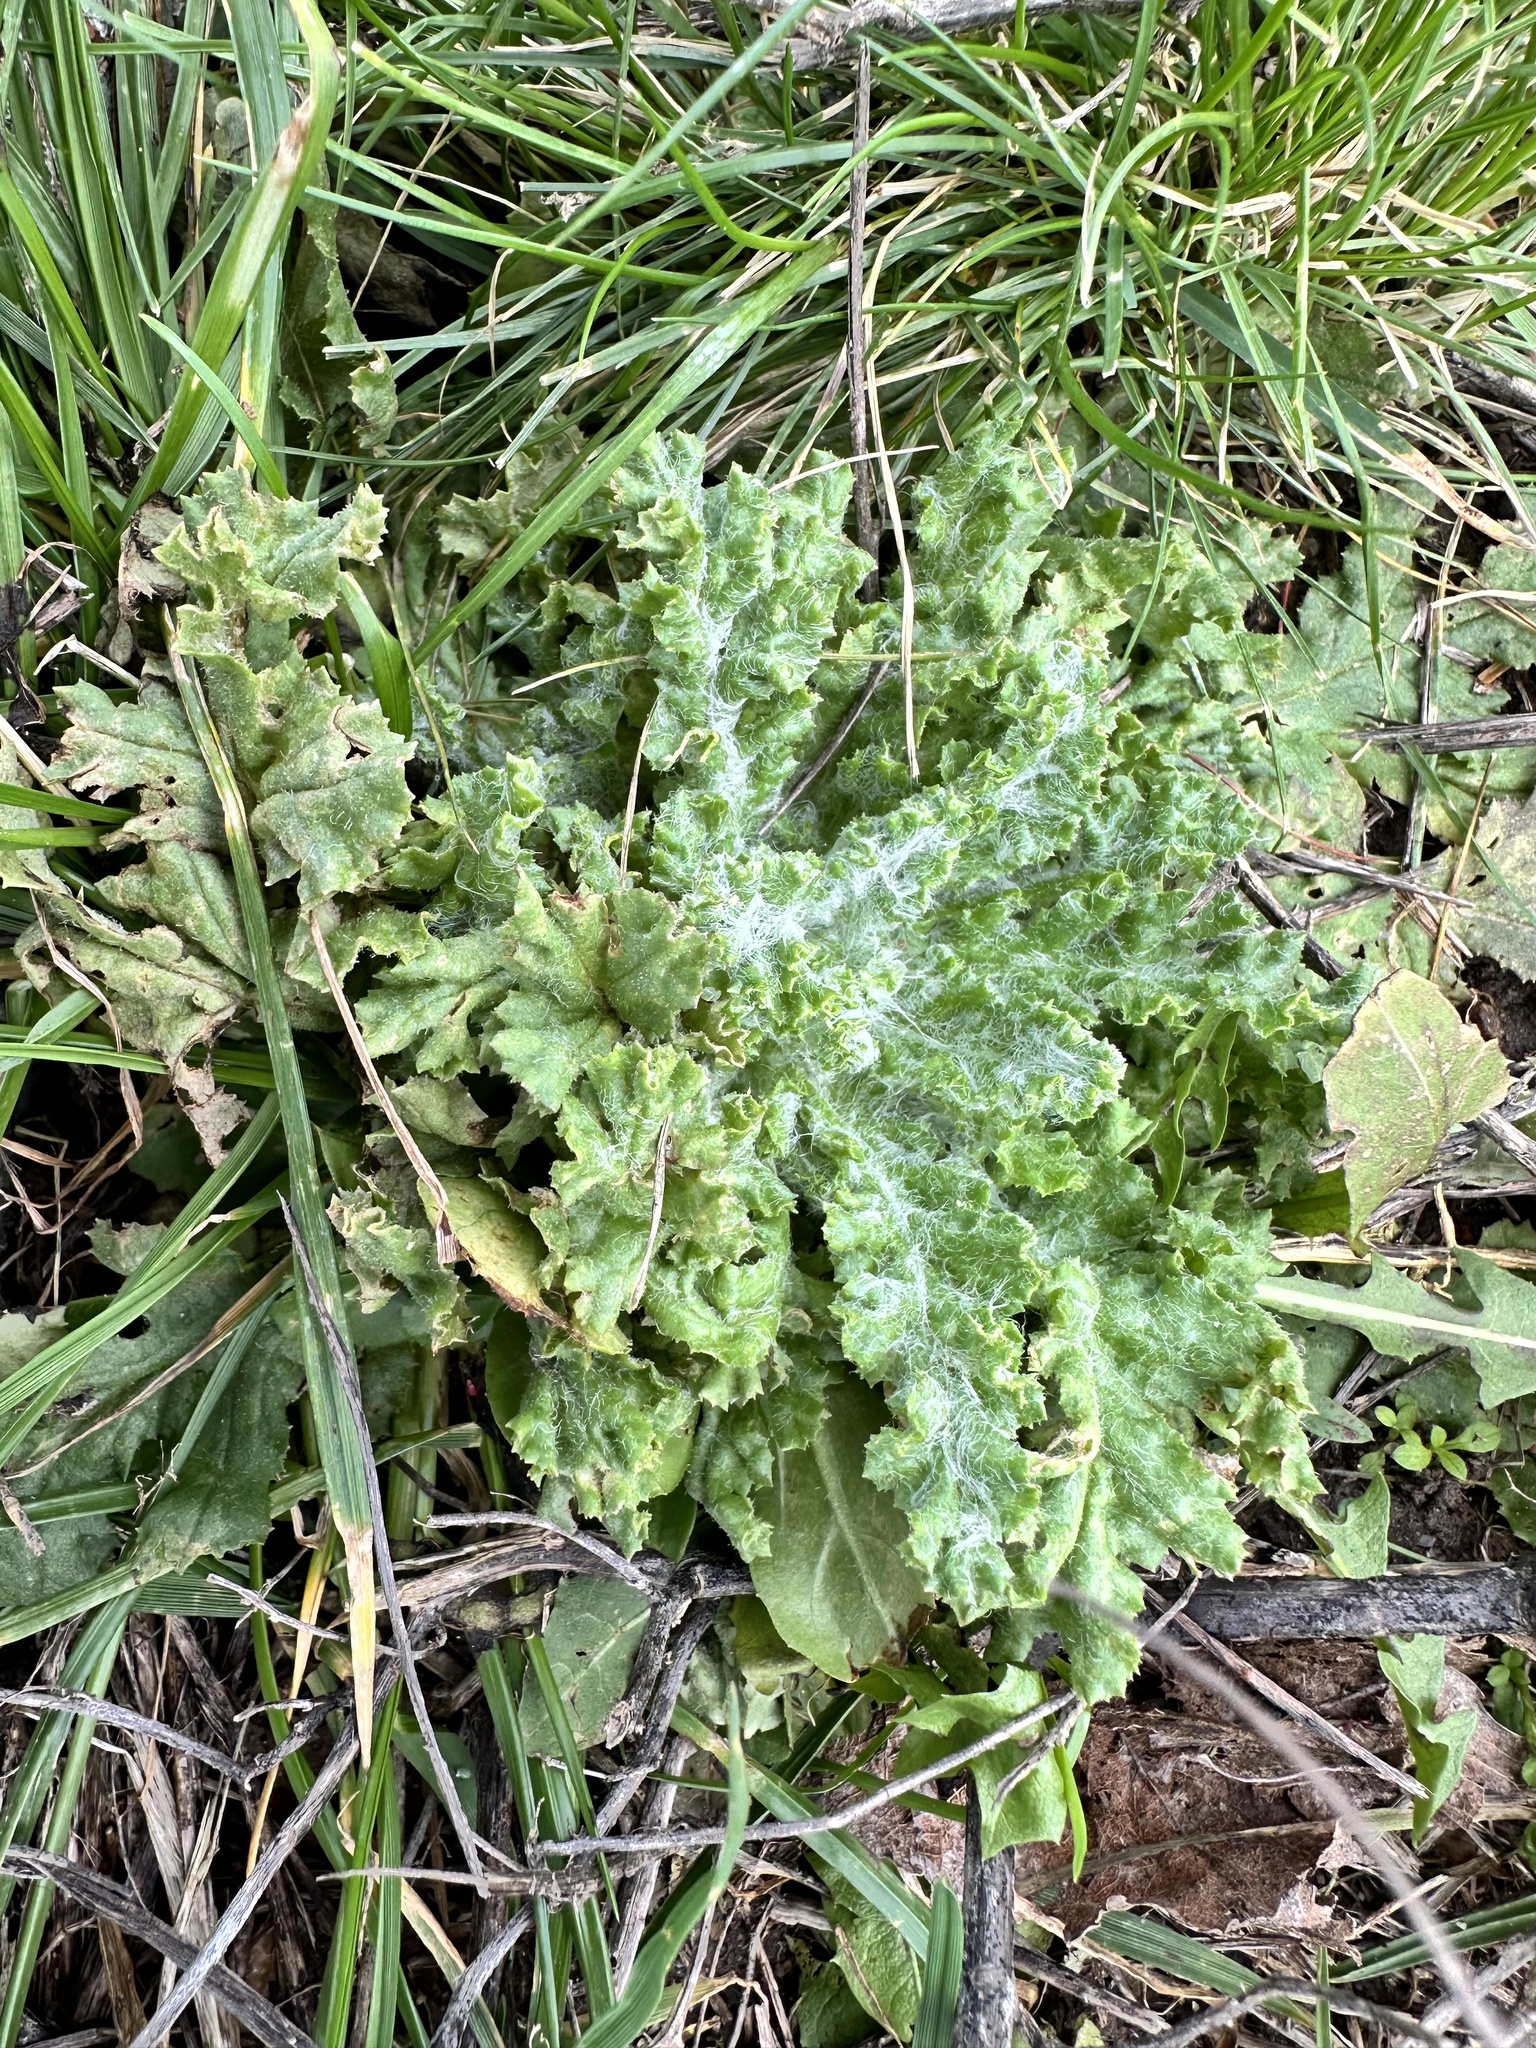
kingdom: Plantae
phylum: Tracheophyta
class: Magnoliopsida
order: Asterales
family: Asteraceae
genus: Senecio
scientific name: Senecio vernalis
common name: Eastern groundsel
